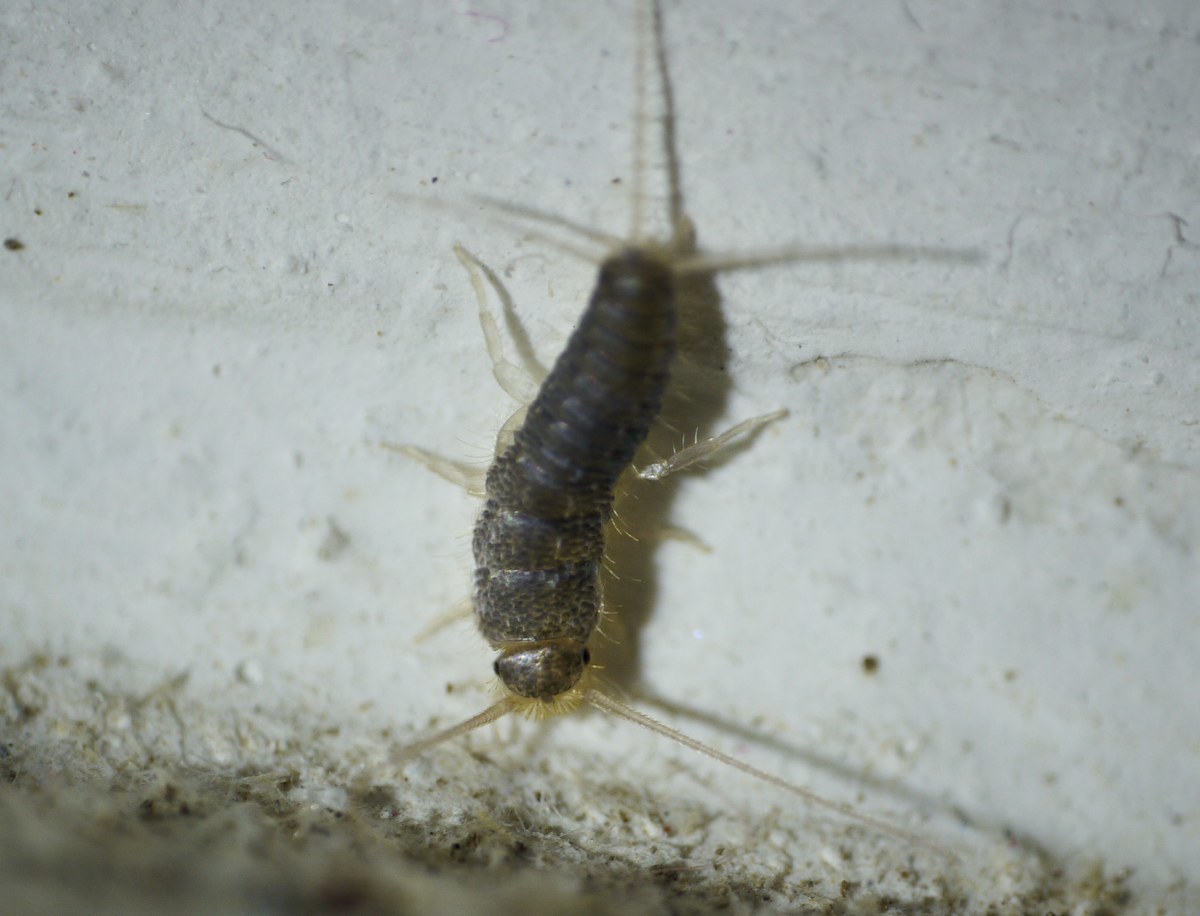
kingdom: Animalia
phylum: Arthropoda
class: Insecta
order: Zygentoma
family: Lepismatidae
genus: Ctenolepisma
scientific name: Ctenolepisma longicaudatum
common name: Silverfish
